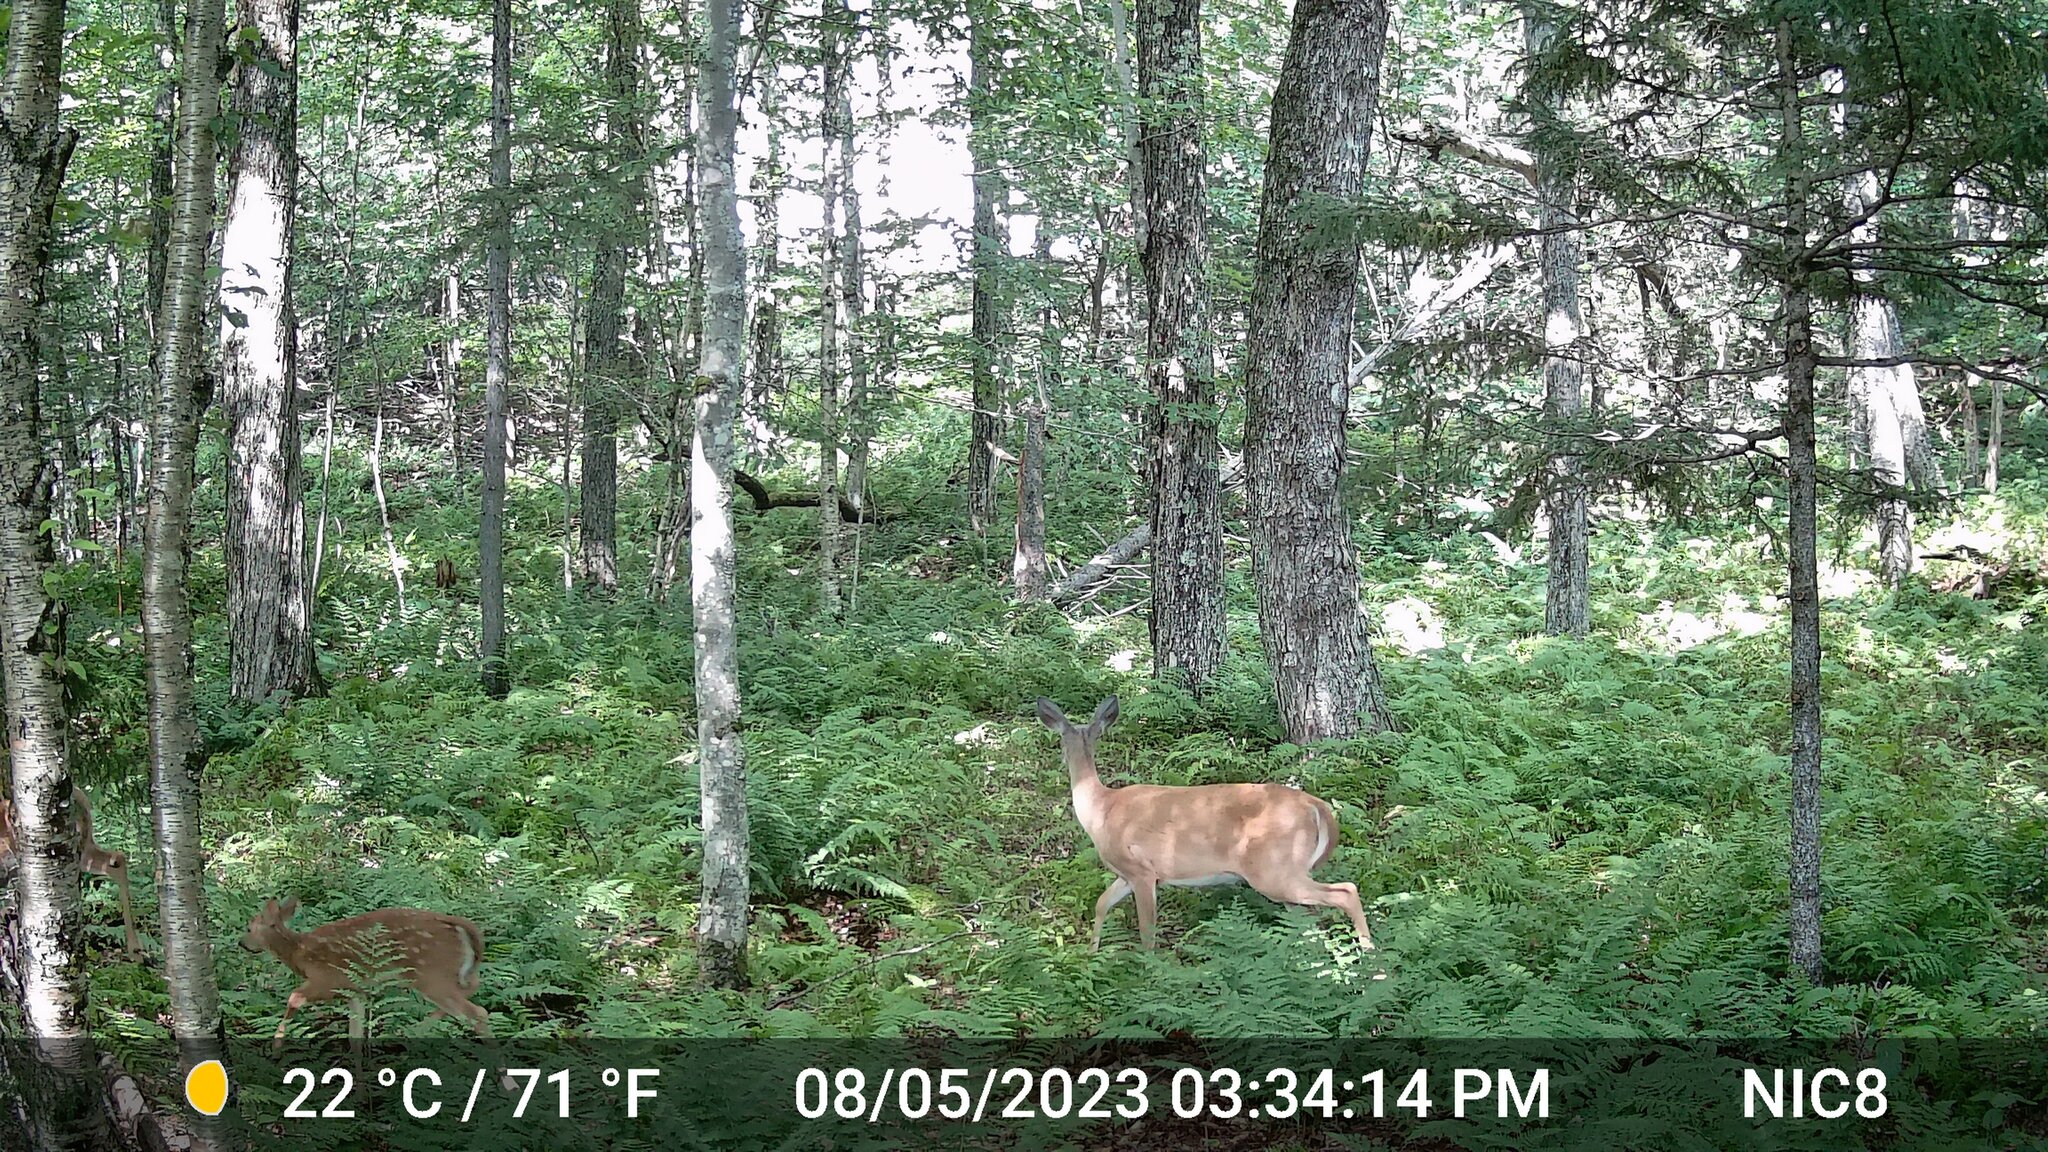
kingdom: Animalia
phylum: Chordata
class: Mammalia
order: Artiodactyla
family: Cervidae
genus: Odocoileus
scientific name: Odocoileus virginianus
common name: White-tailed deer
